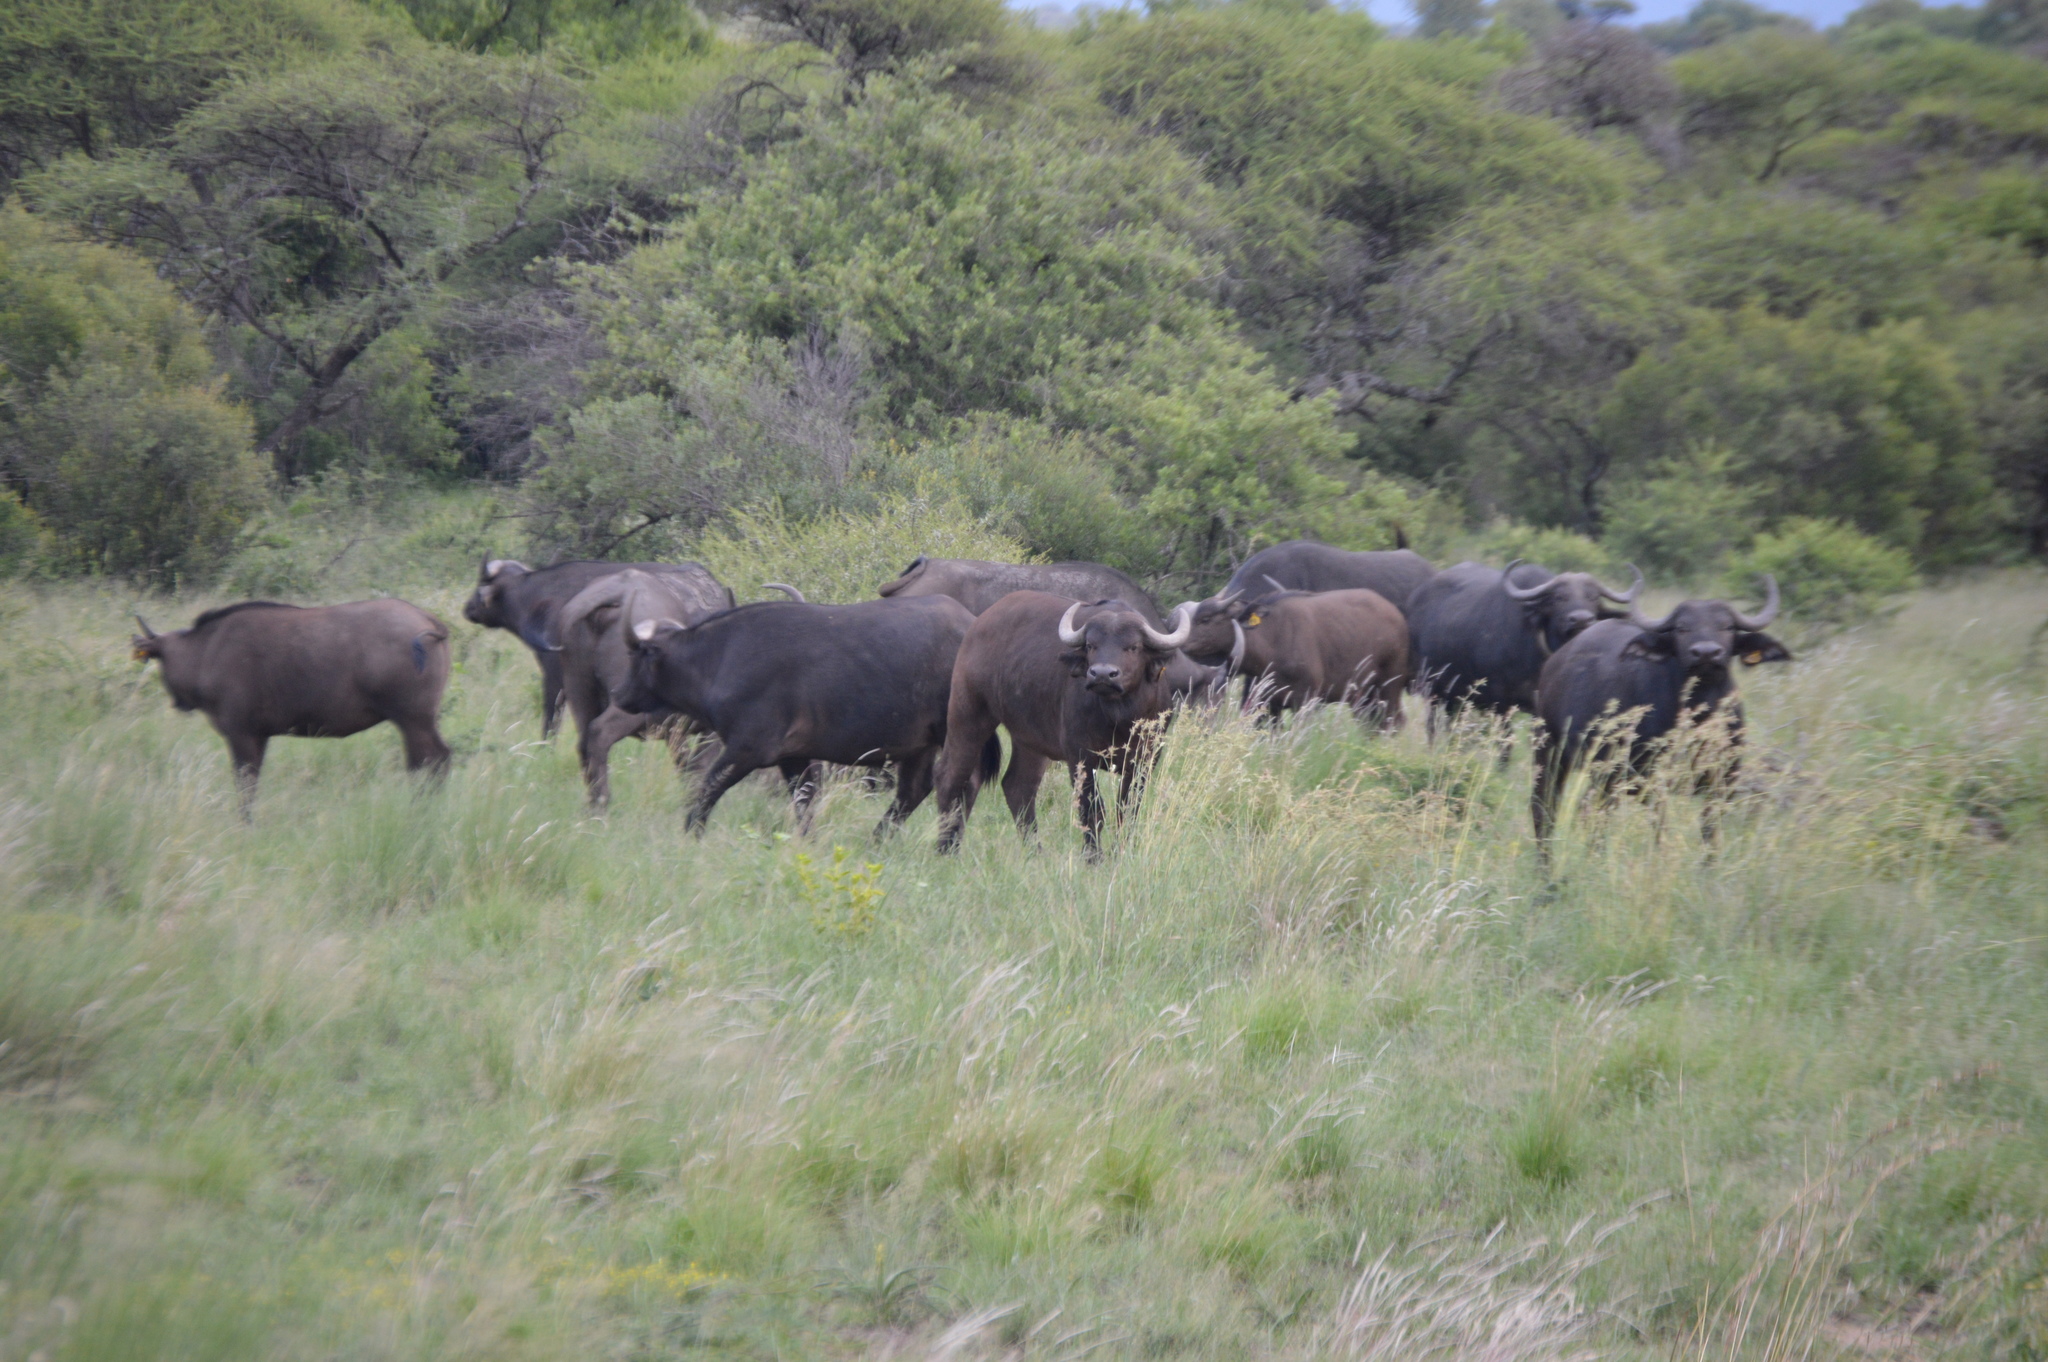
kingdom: Animalia
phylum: Chordata
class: Mammalia
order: Artiodactyla
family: Bovidae
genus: Syncerus
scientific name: Syncerus caffer
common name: African buffalo
